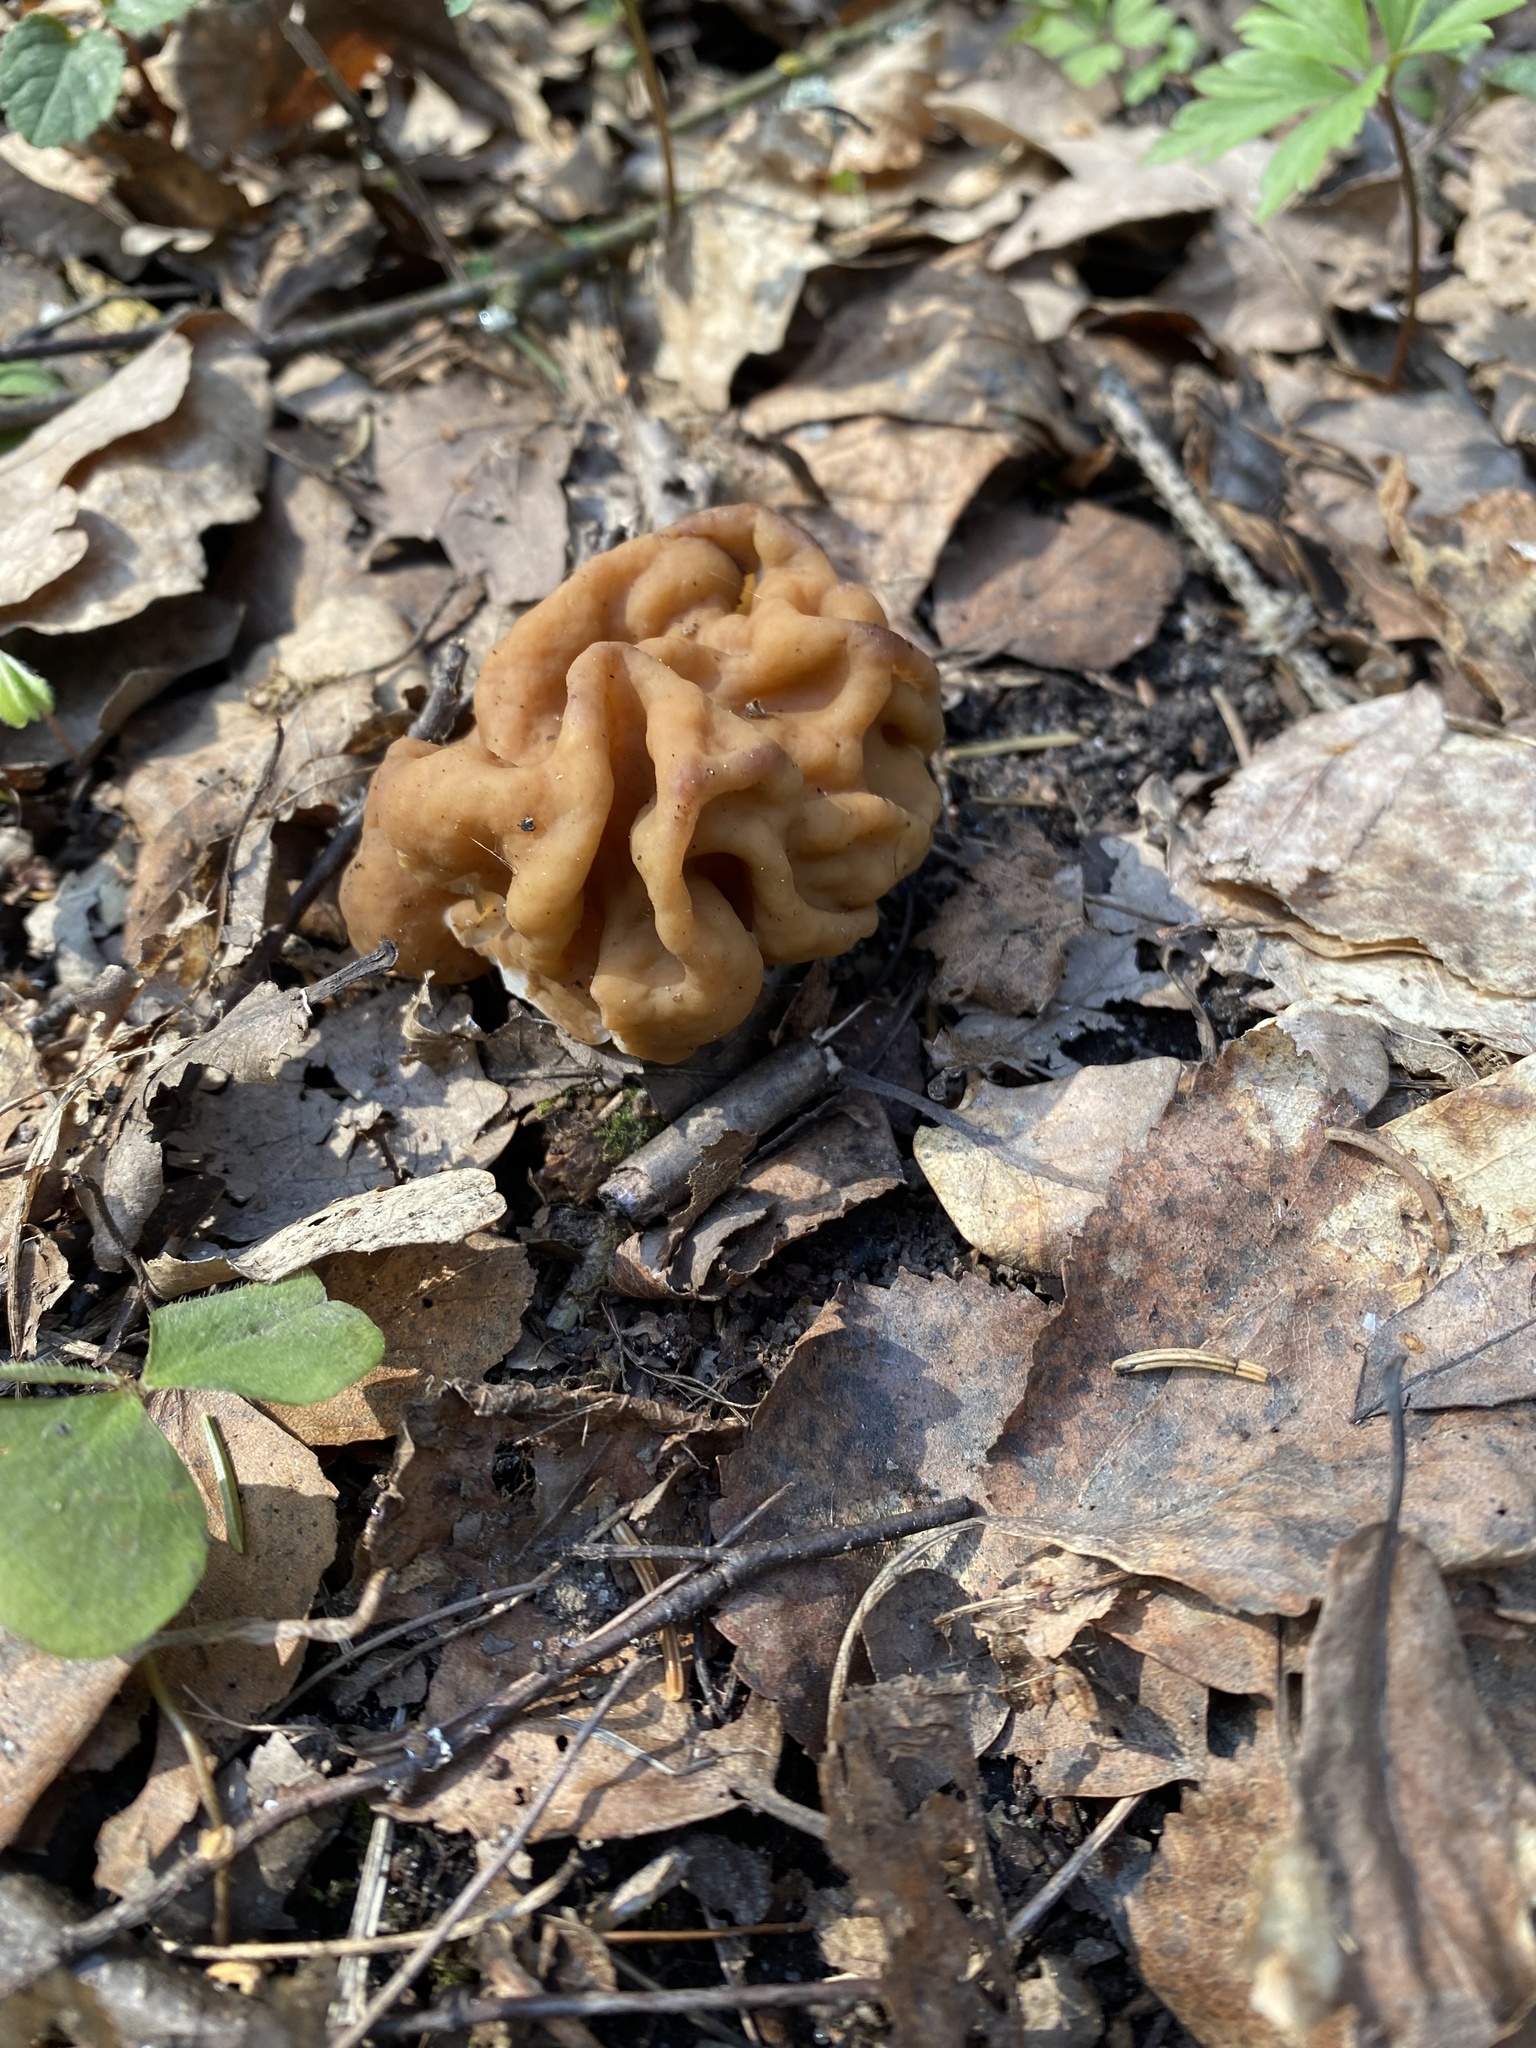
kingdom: Fungi
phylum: Ascomycota
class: Pezizomycetes
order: Pezizales
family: Discinaceae
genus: Gyromitra
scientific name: Gyromitra gigas
